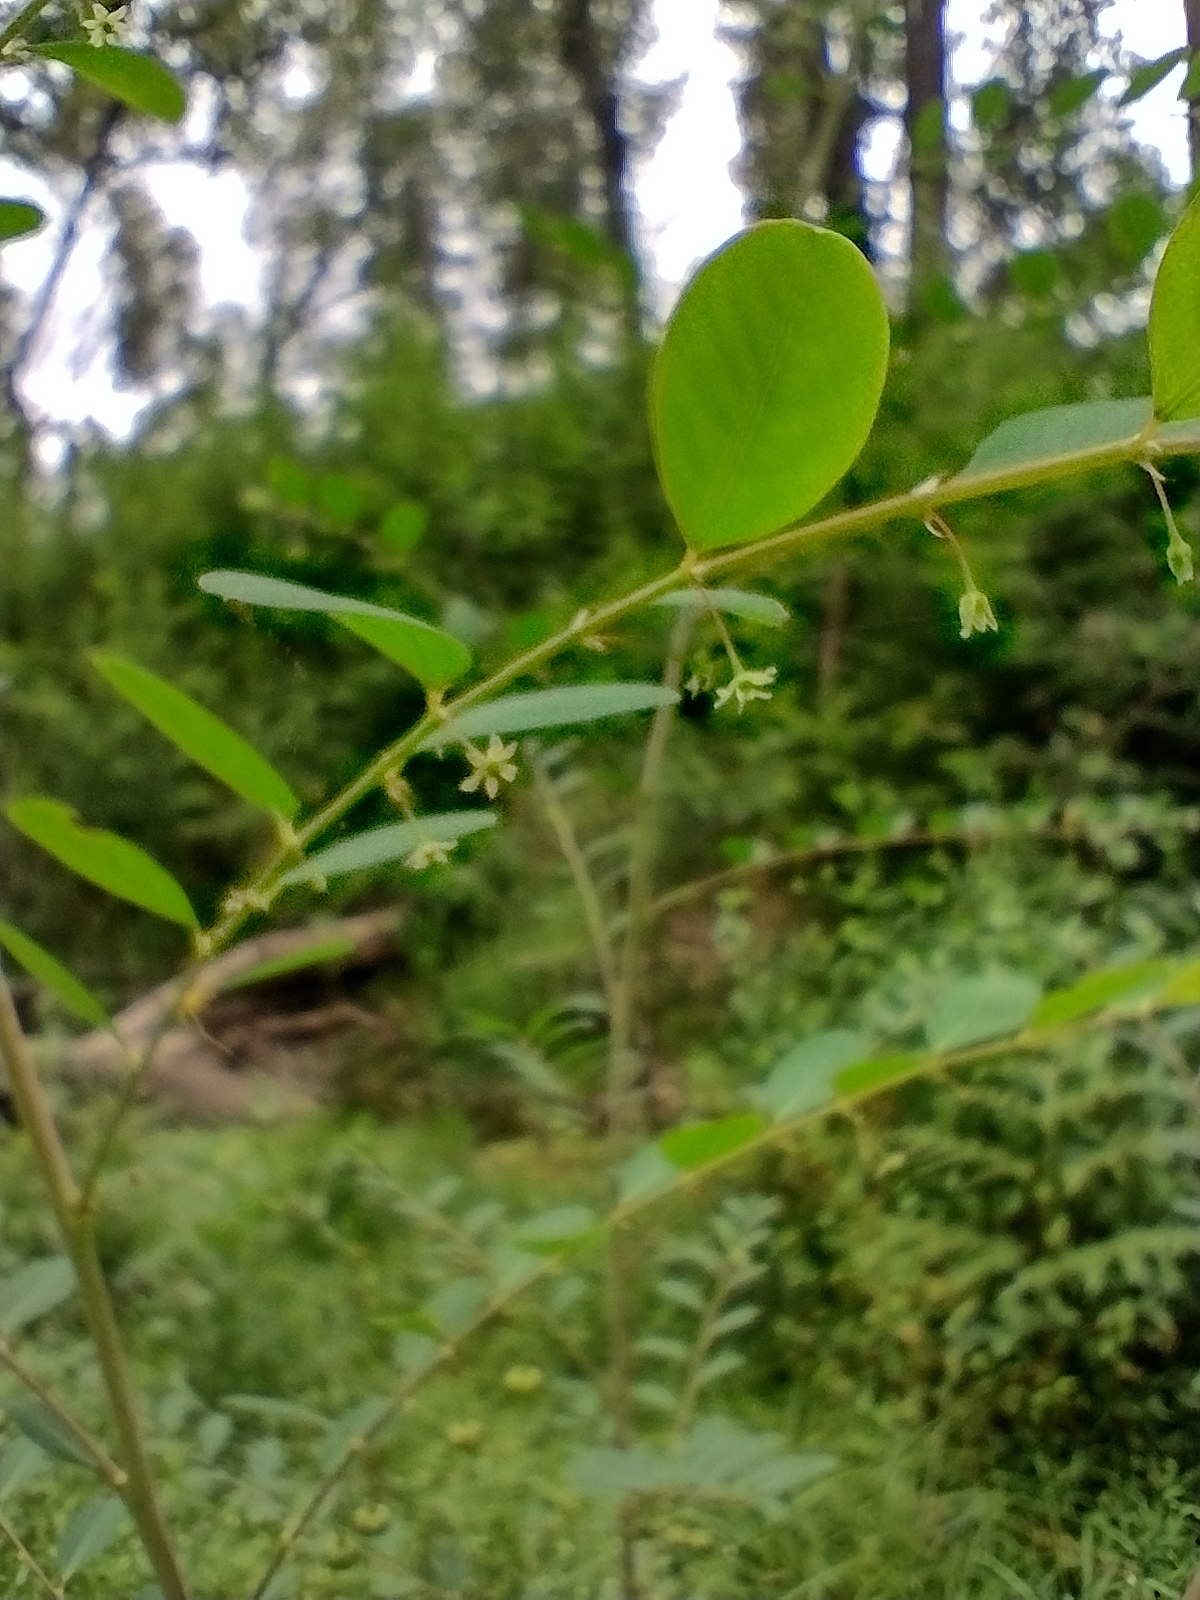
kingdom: Plantae
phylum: Tracheophyta
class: Magnoliopsida
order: Malpighiales
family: Phyllanthaceae
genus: Phyllanthus
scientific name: Phyllanthus gunnii
